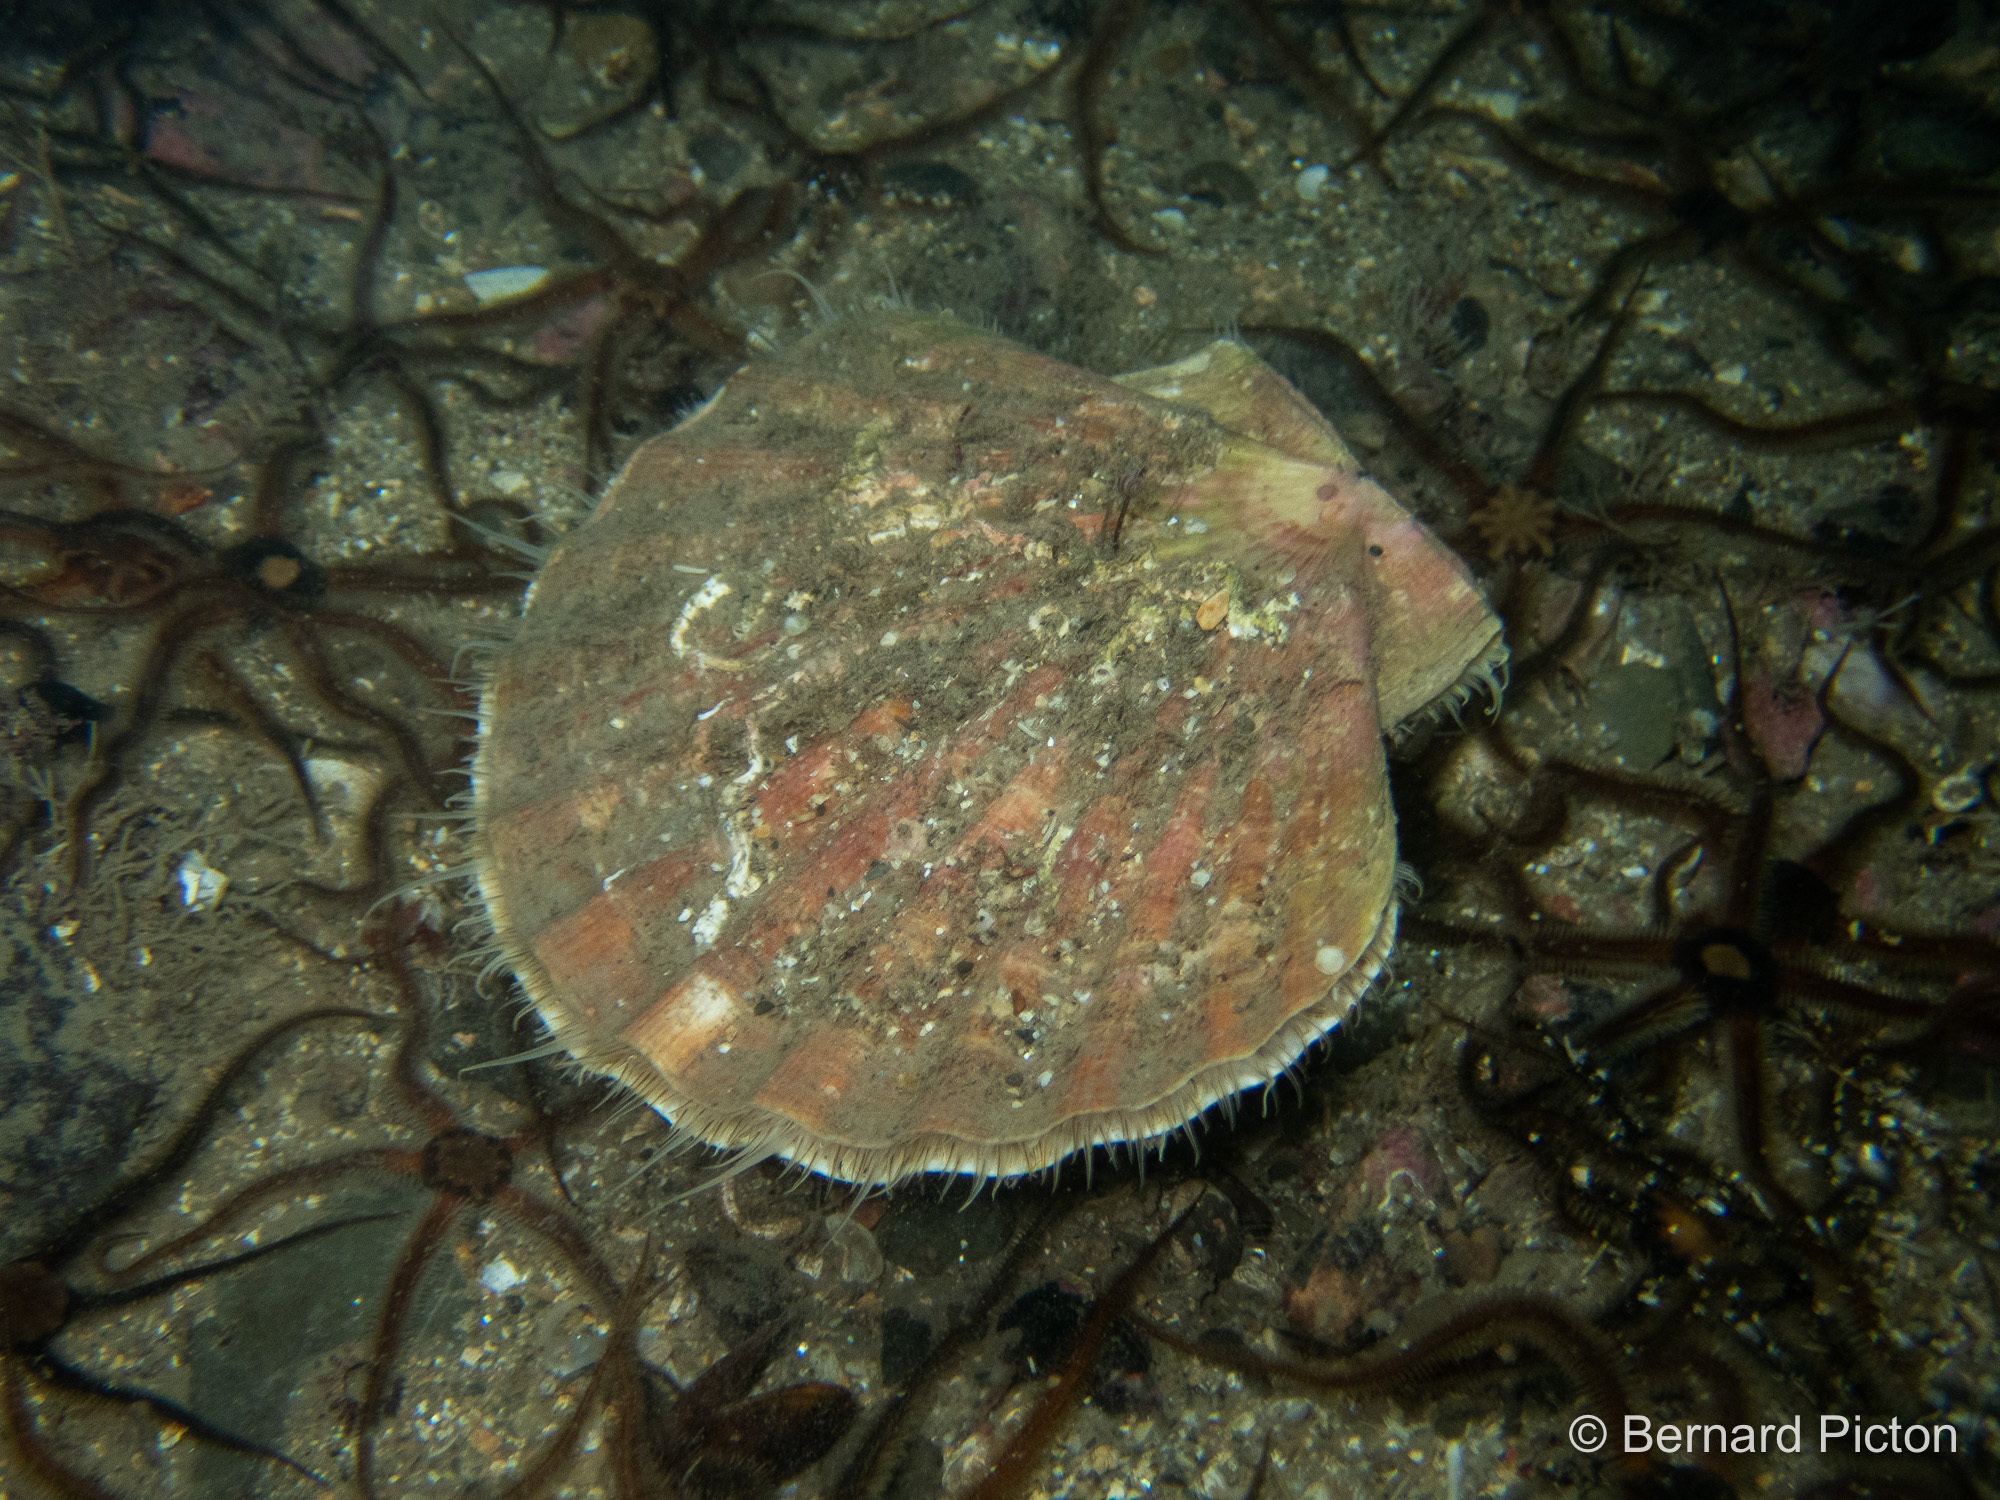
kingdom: Animalia
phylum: Mollusca
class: Bivalvia
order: Pectinida
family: Pectinidae
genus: Pecten
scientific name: Pecten maximus
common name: Great scallop
